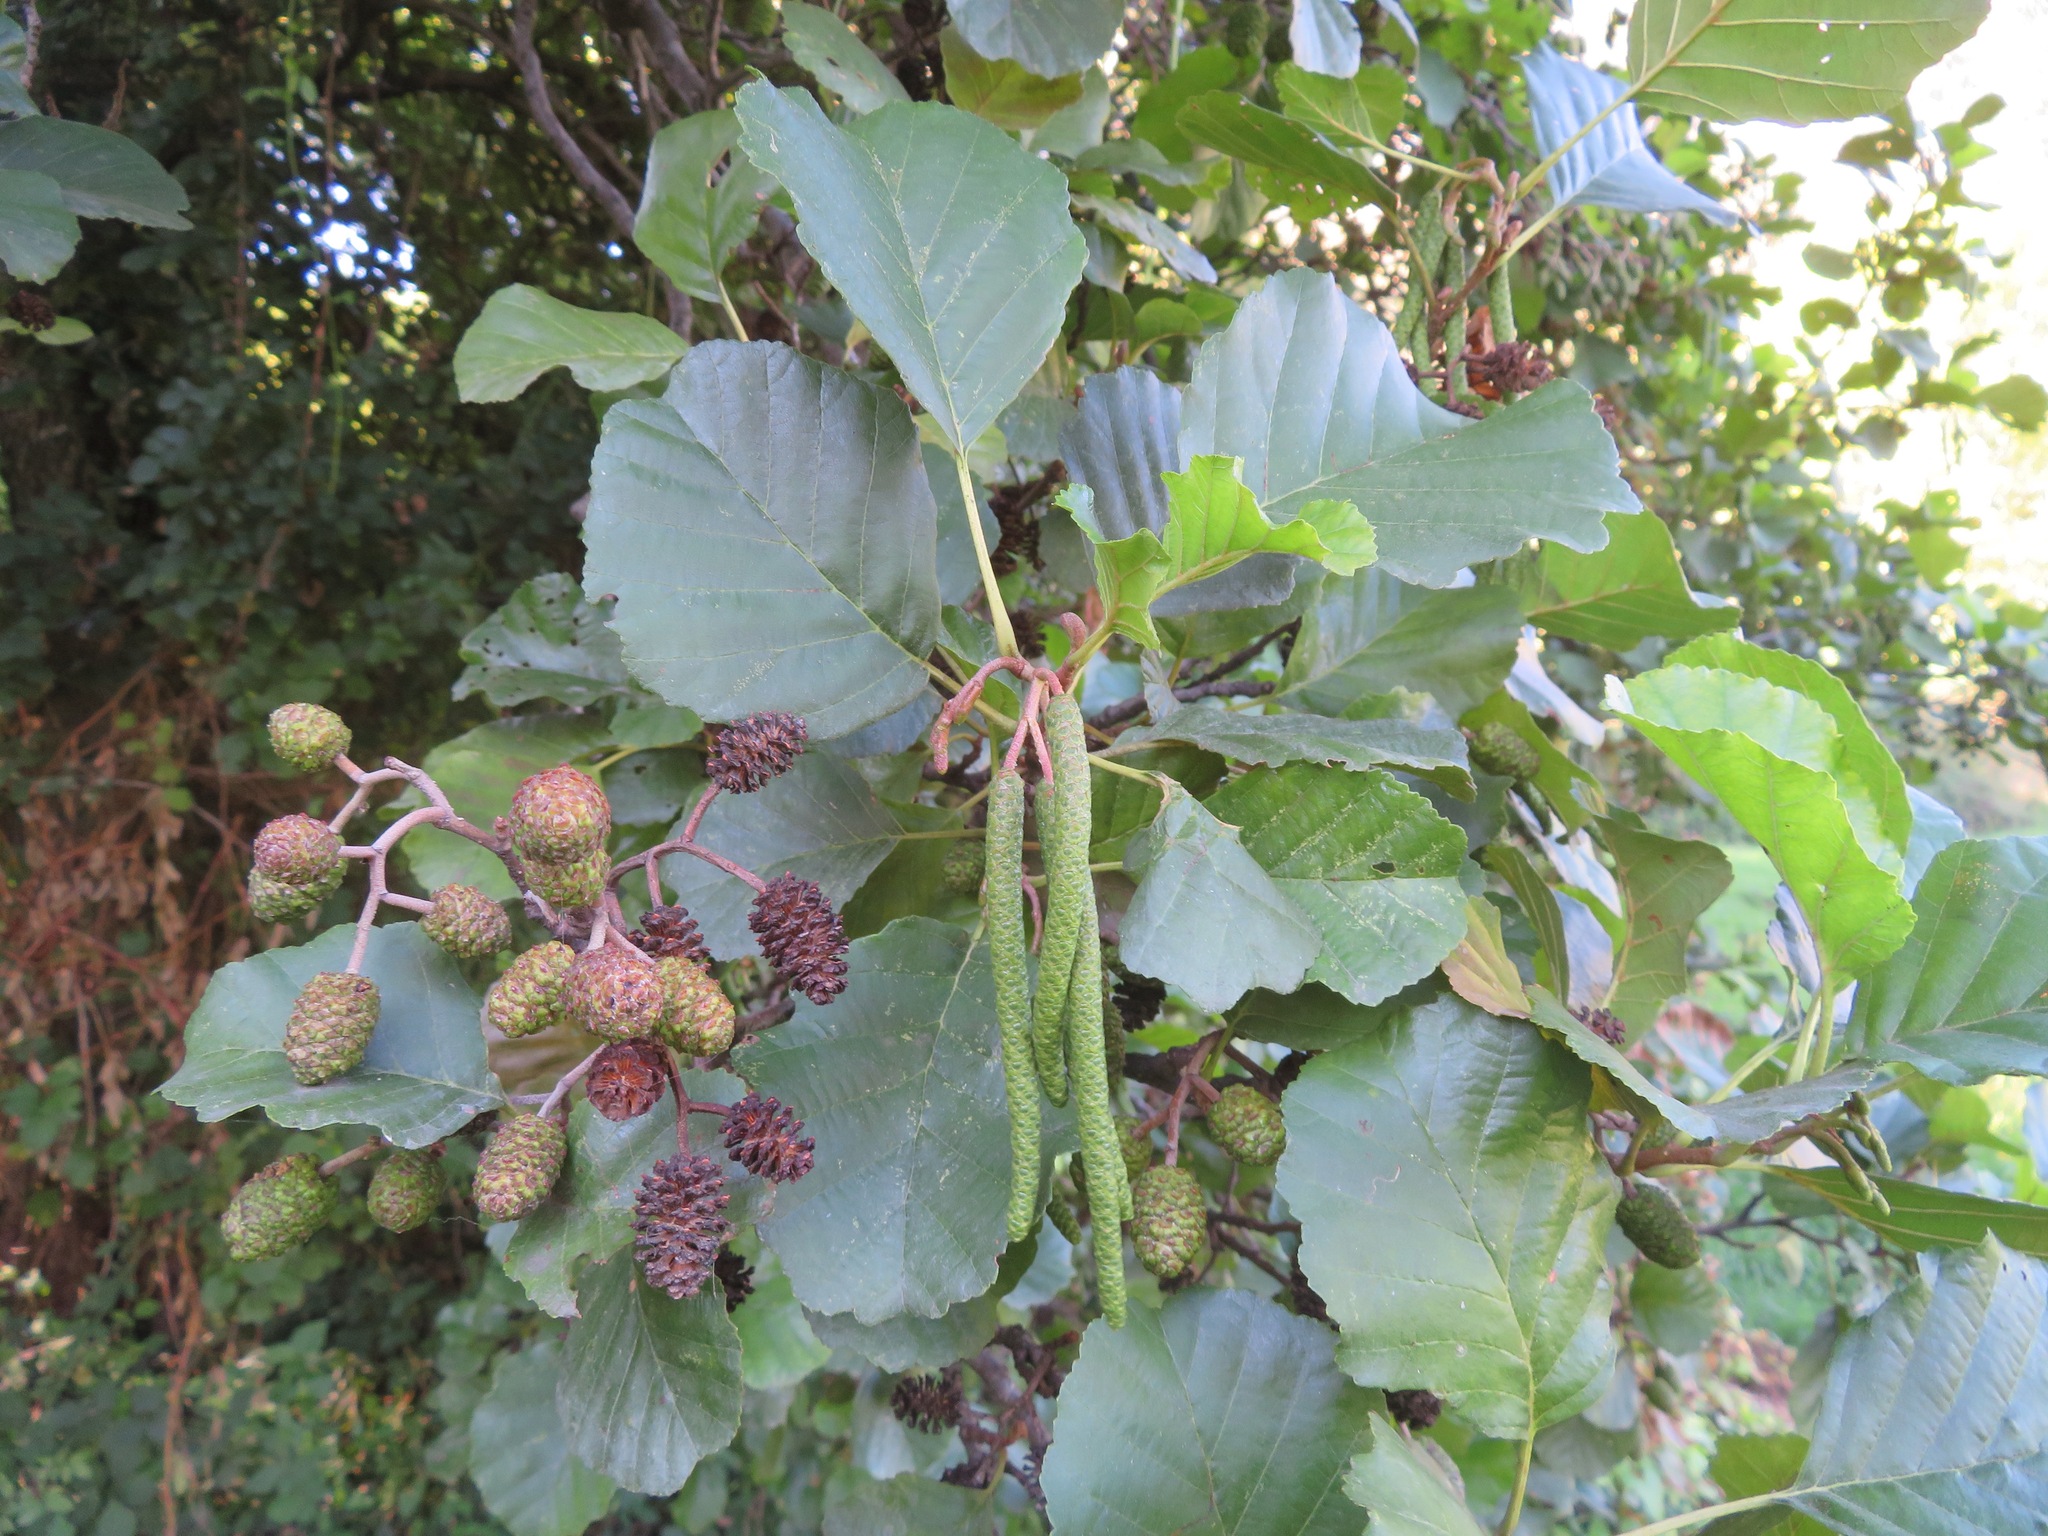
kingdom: Plantae
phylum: Tracheophyta
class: Magnoliopsida
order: Fagales
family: Betulaceae
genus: Alnus
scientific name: Alnus glutinosa
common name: Black alder
